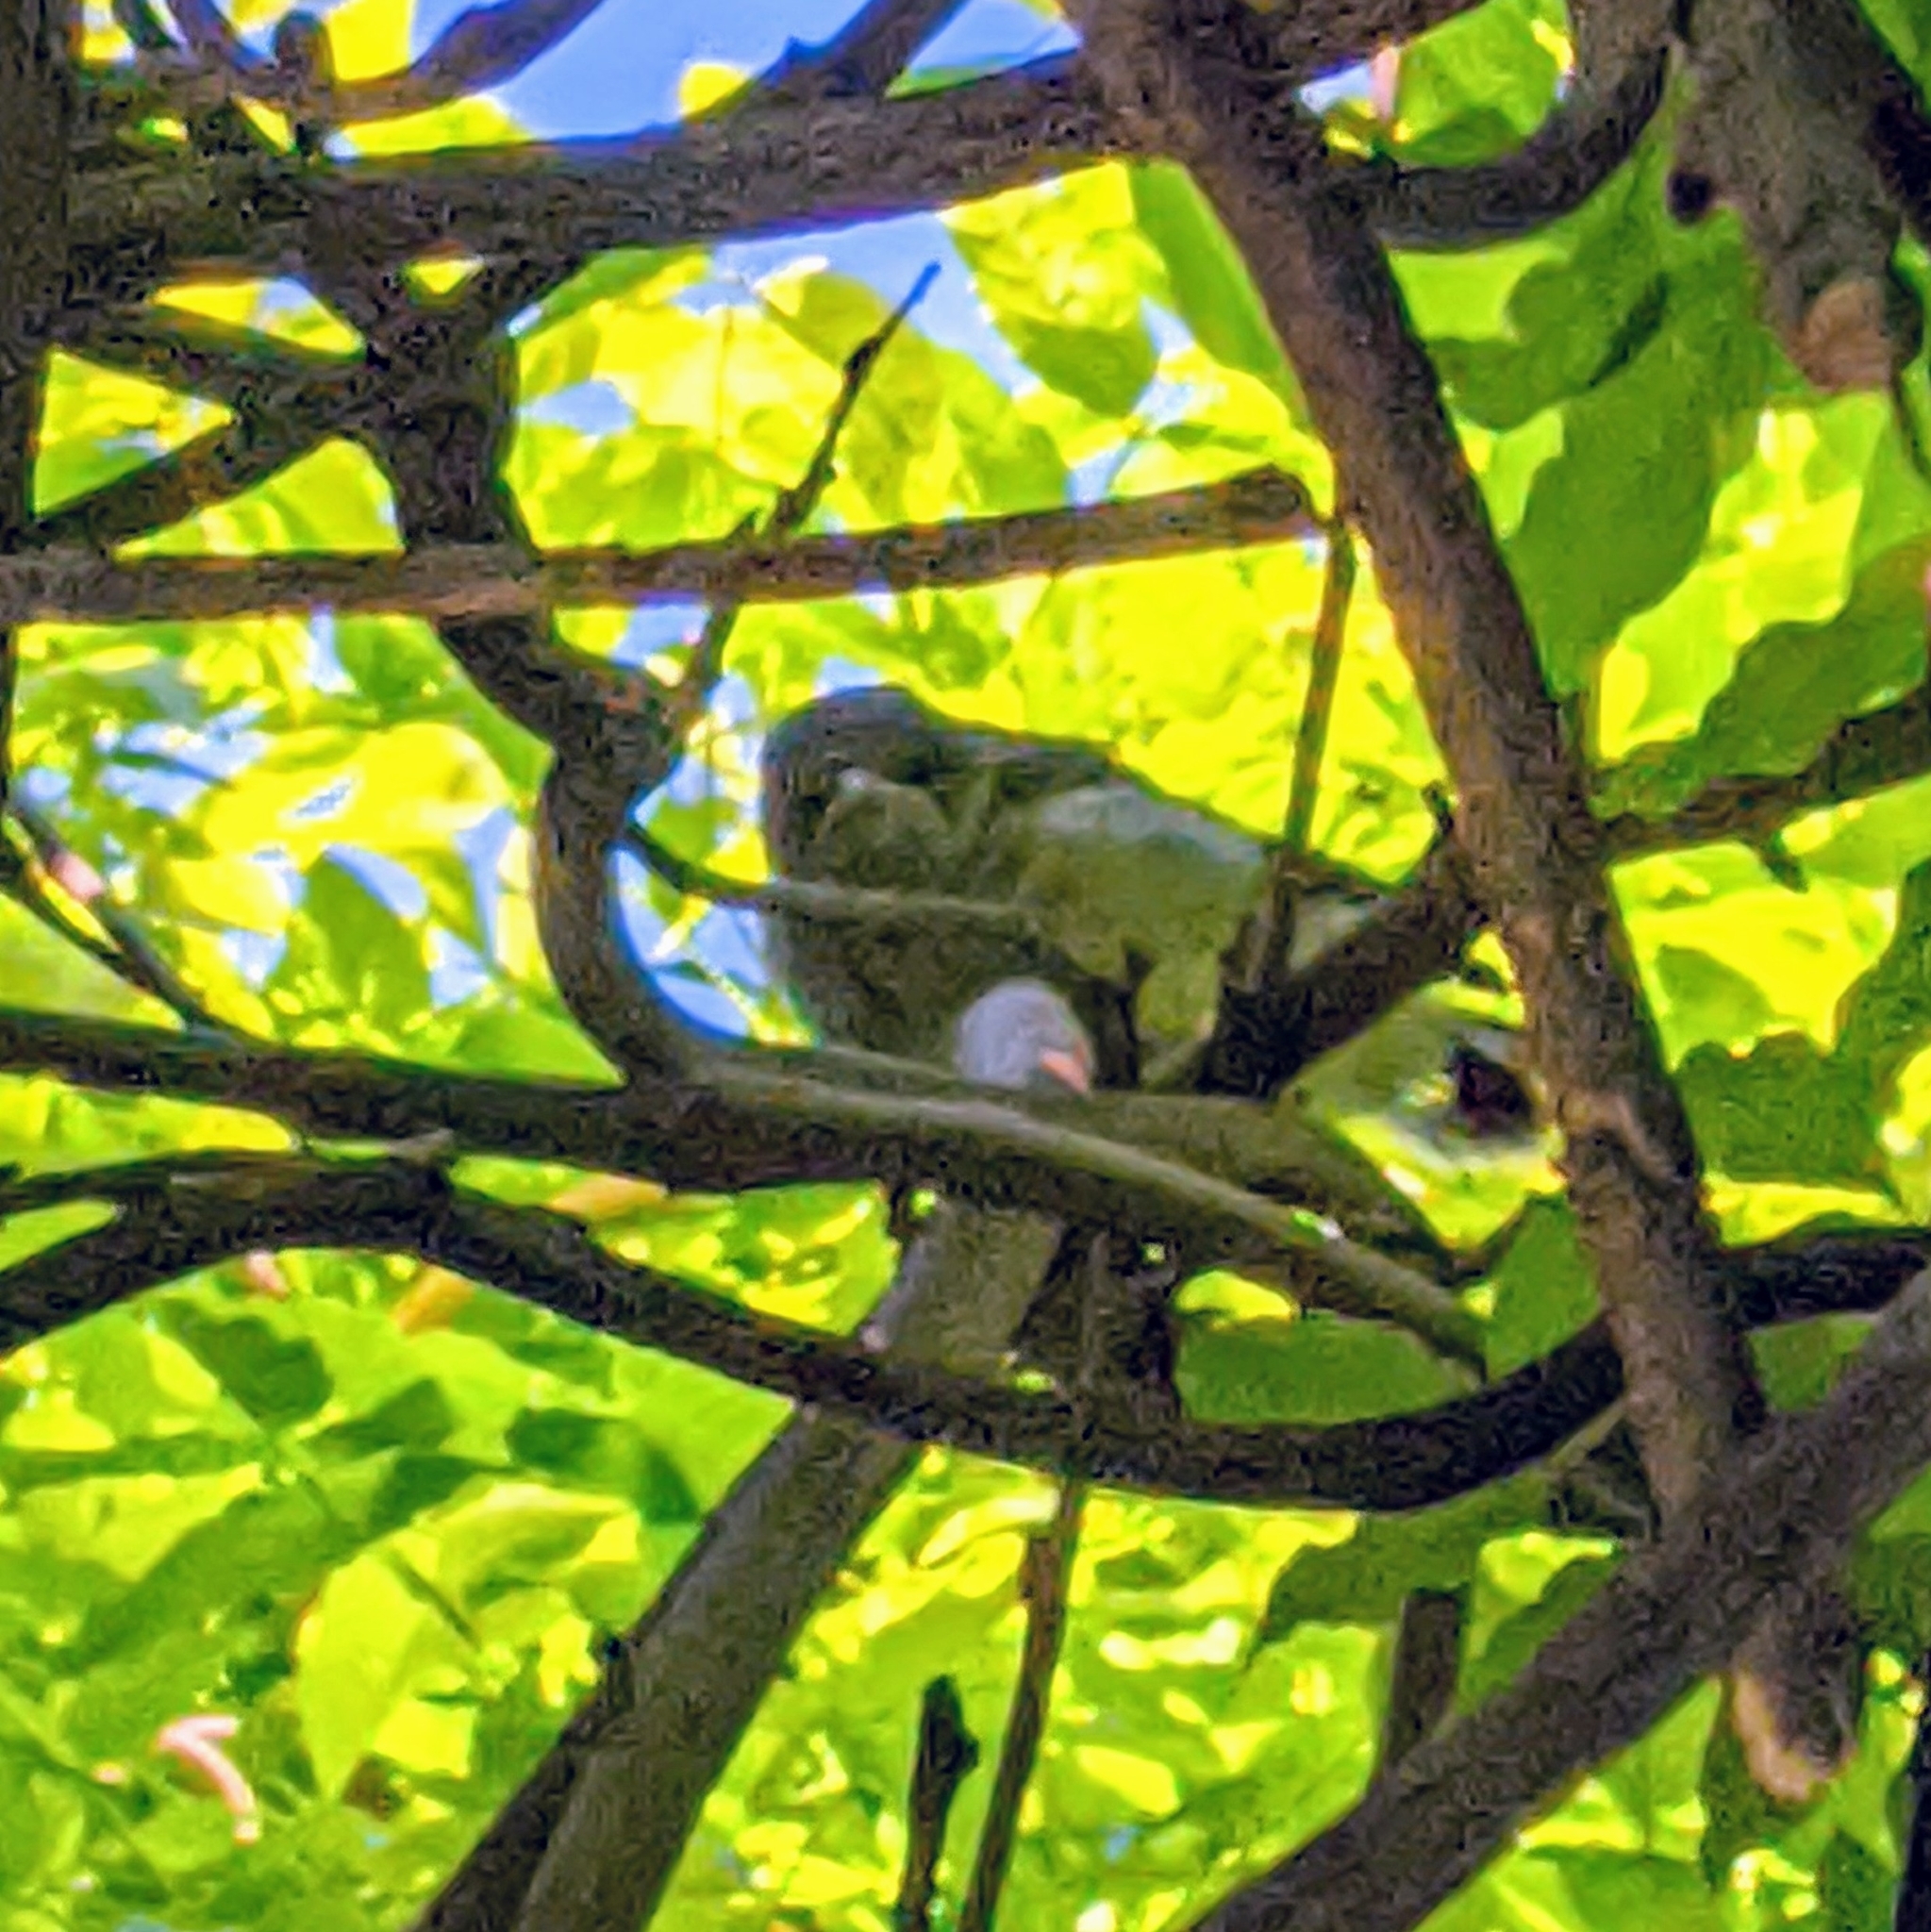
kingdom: Animalia
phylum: Chordata
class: Aves
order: Passeriformes
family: Mimidae
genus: Mimus
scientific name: Mimus polyglottos
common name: Northern mockingbird
